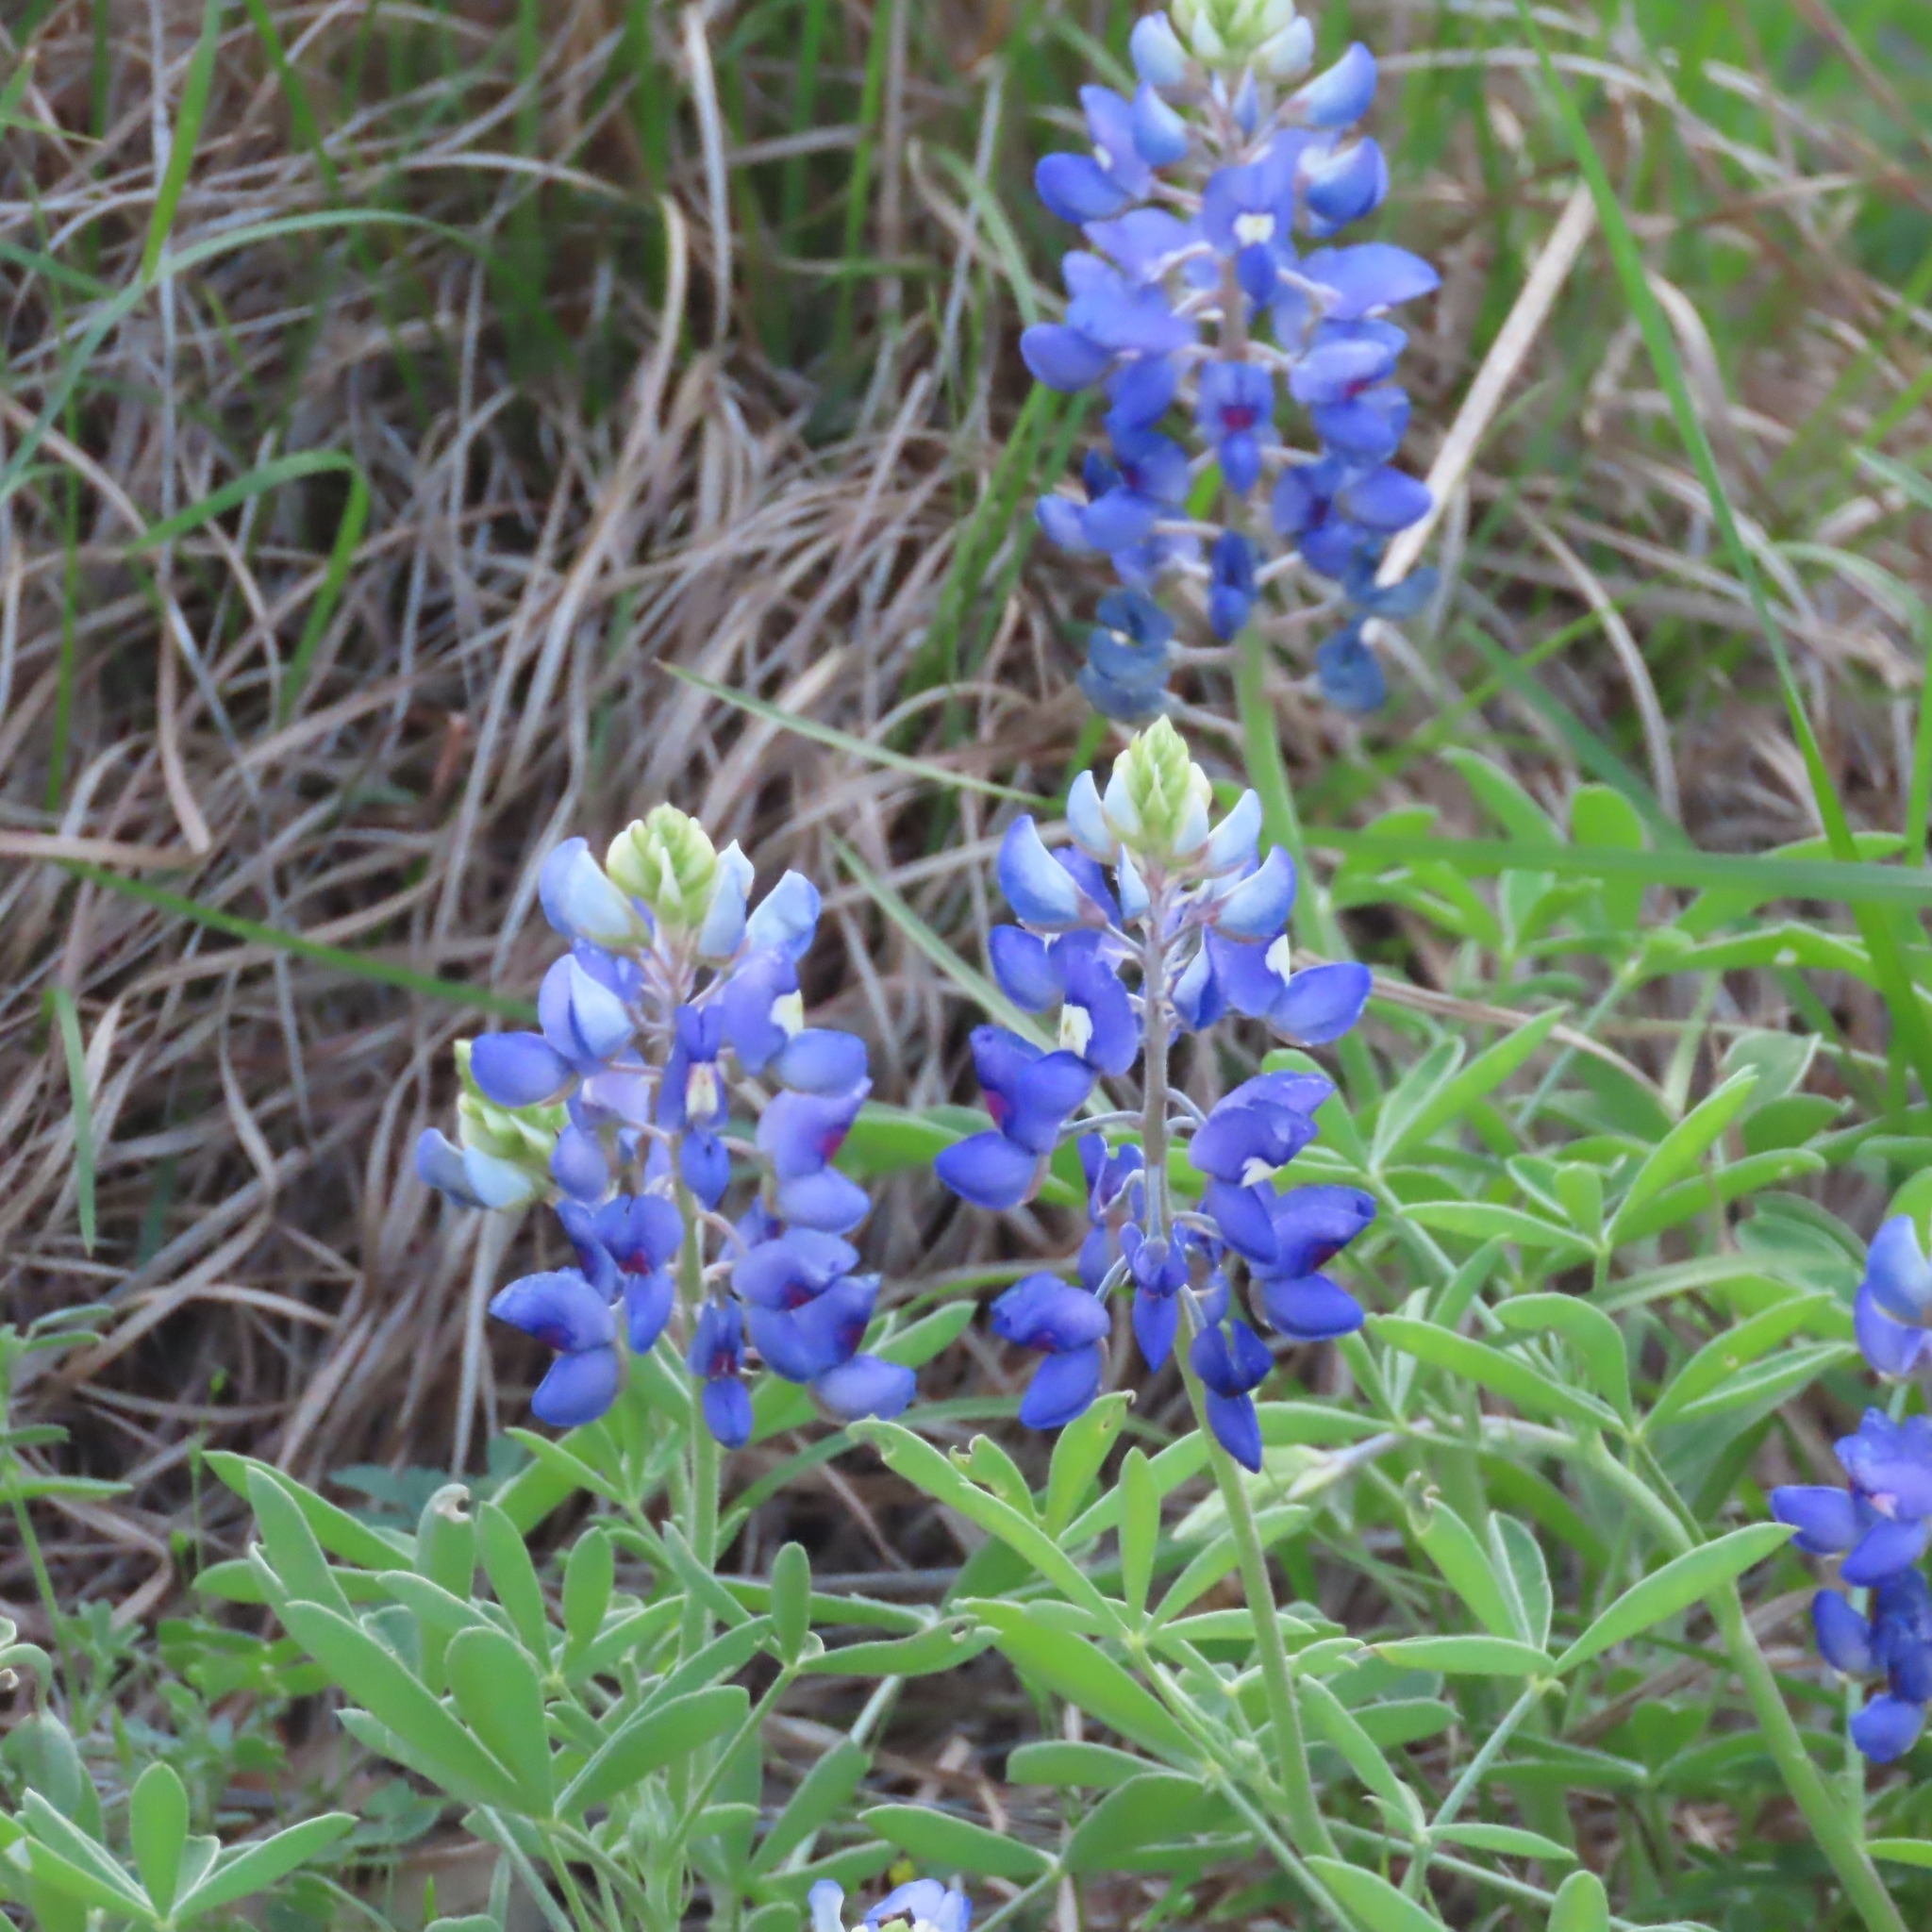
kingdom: Plantae
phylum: Tracheophyta
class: Magnoliopsida
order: Fabales
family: Fabaceae
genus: Lupinus
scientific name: Lupinus texensis
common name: Texas bluebonnet
